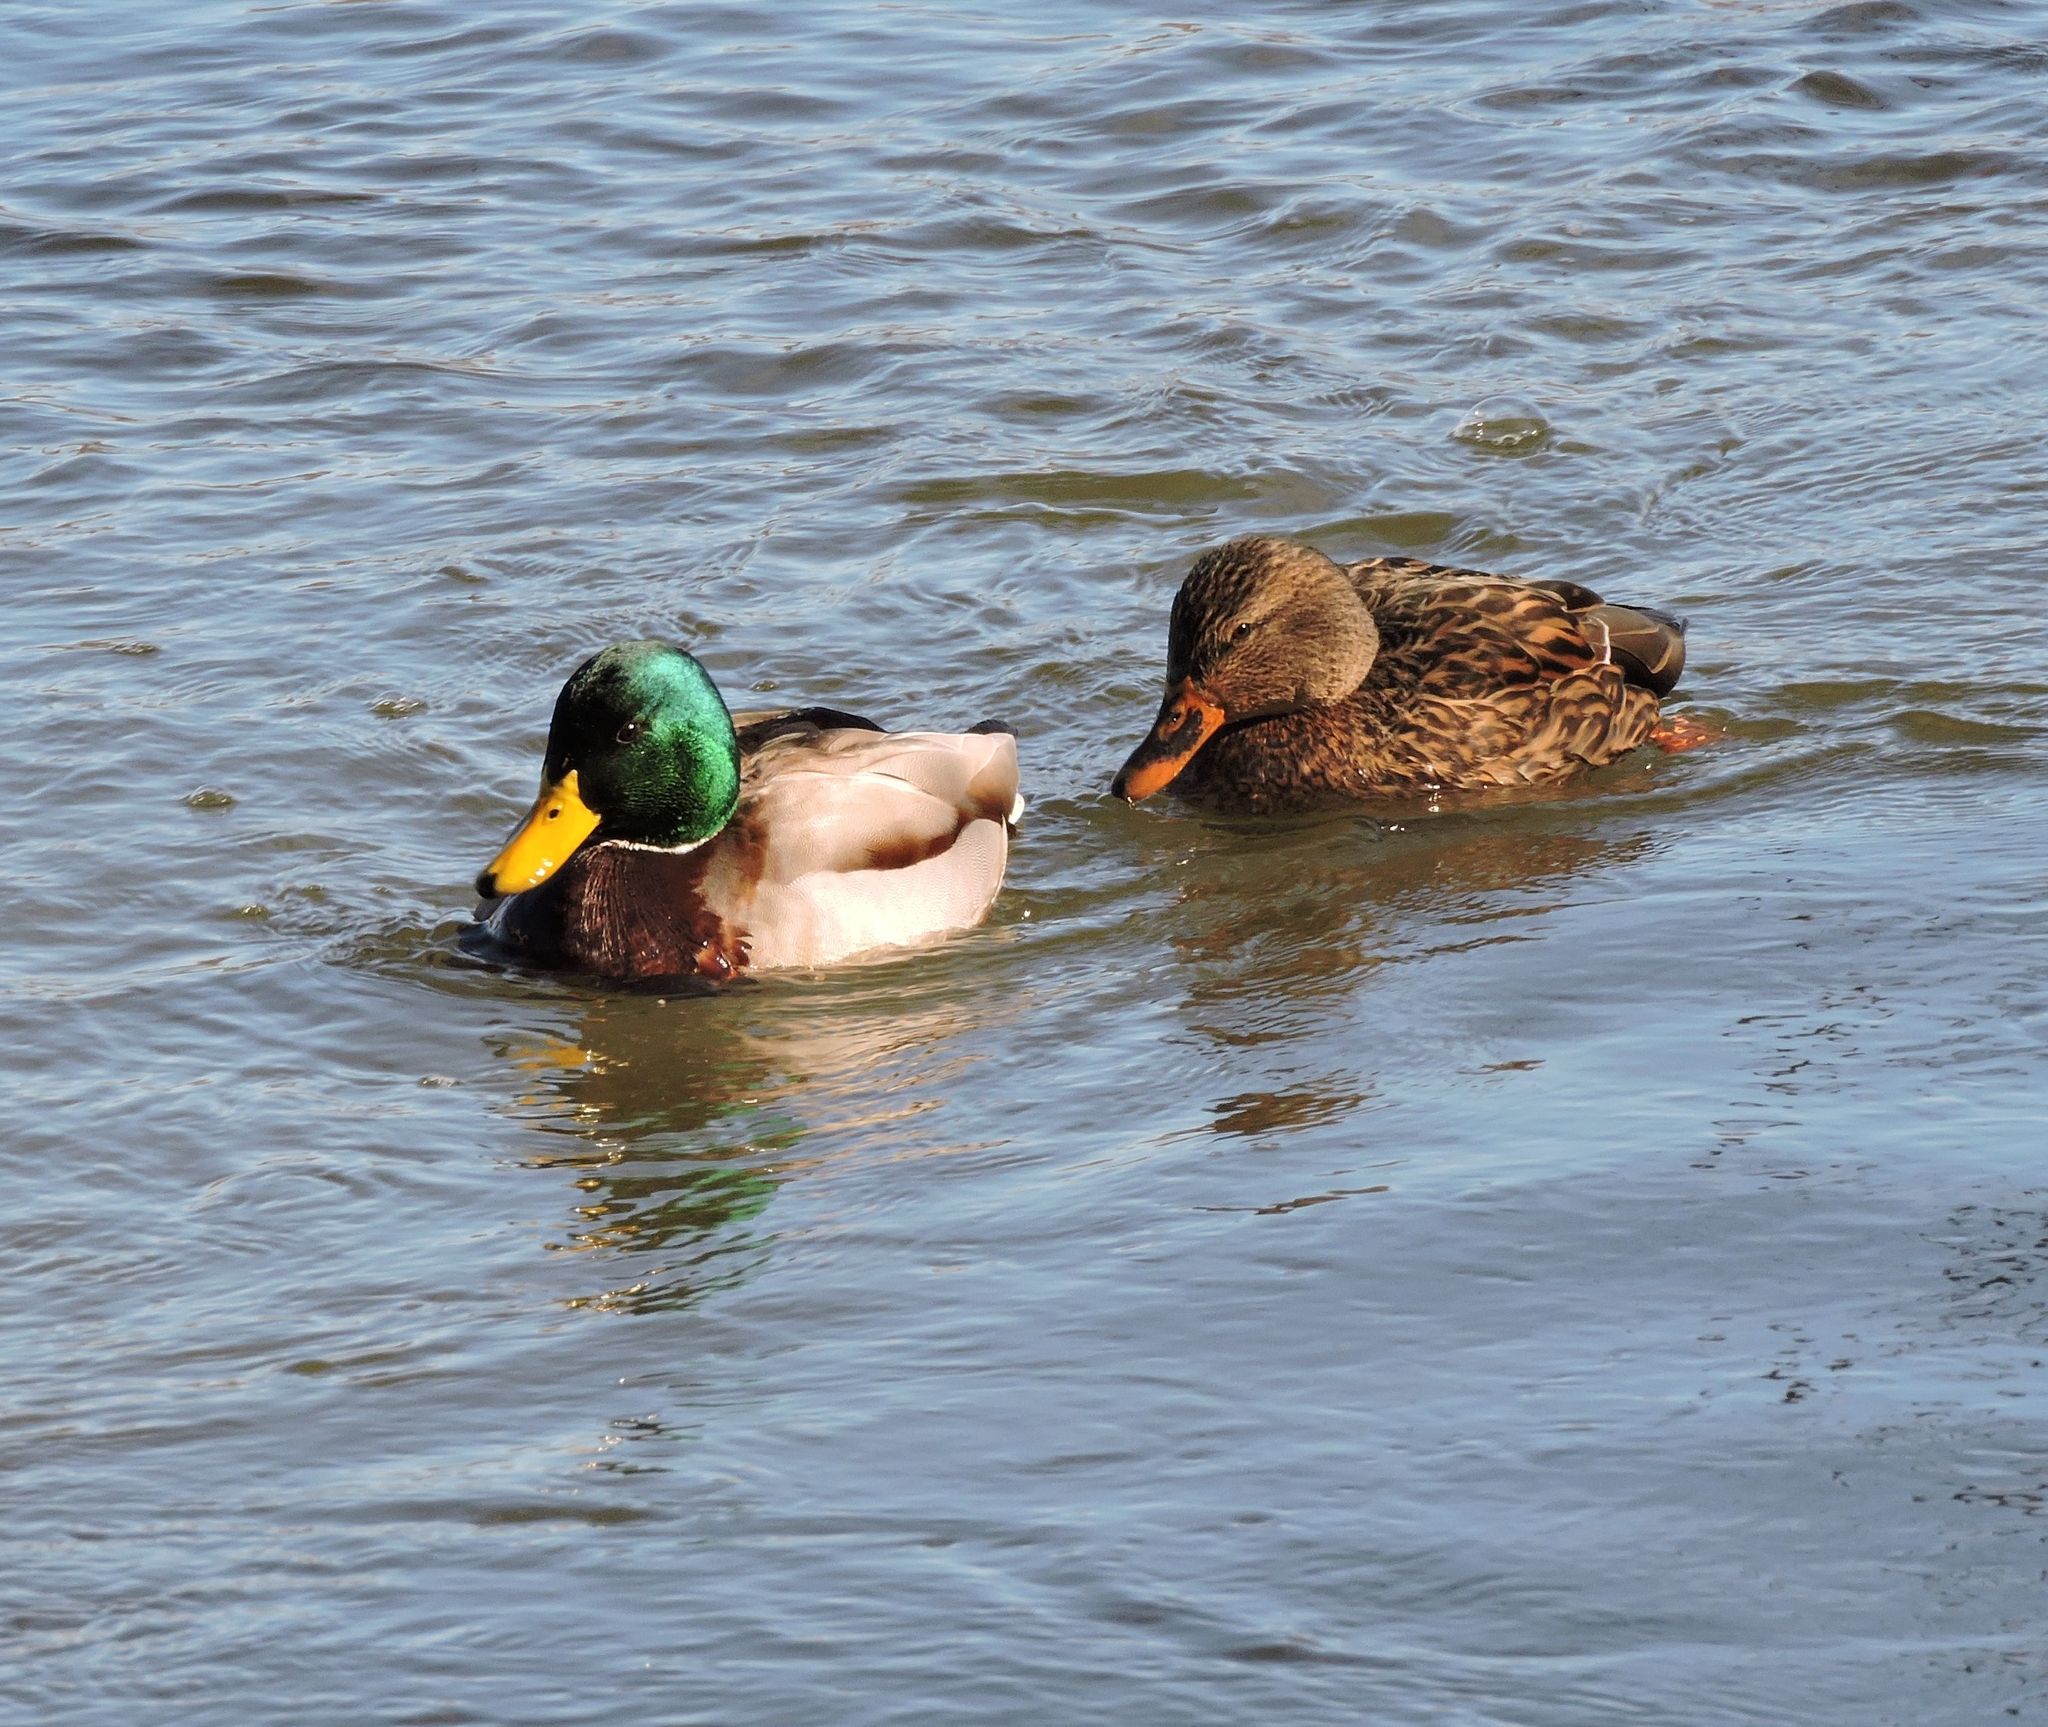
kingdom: Animalia
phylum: Chordata
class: Aves
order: Anseriformes
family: Anatidae
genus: Anas
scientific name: Anas platyrhynchos
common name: Mallard
